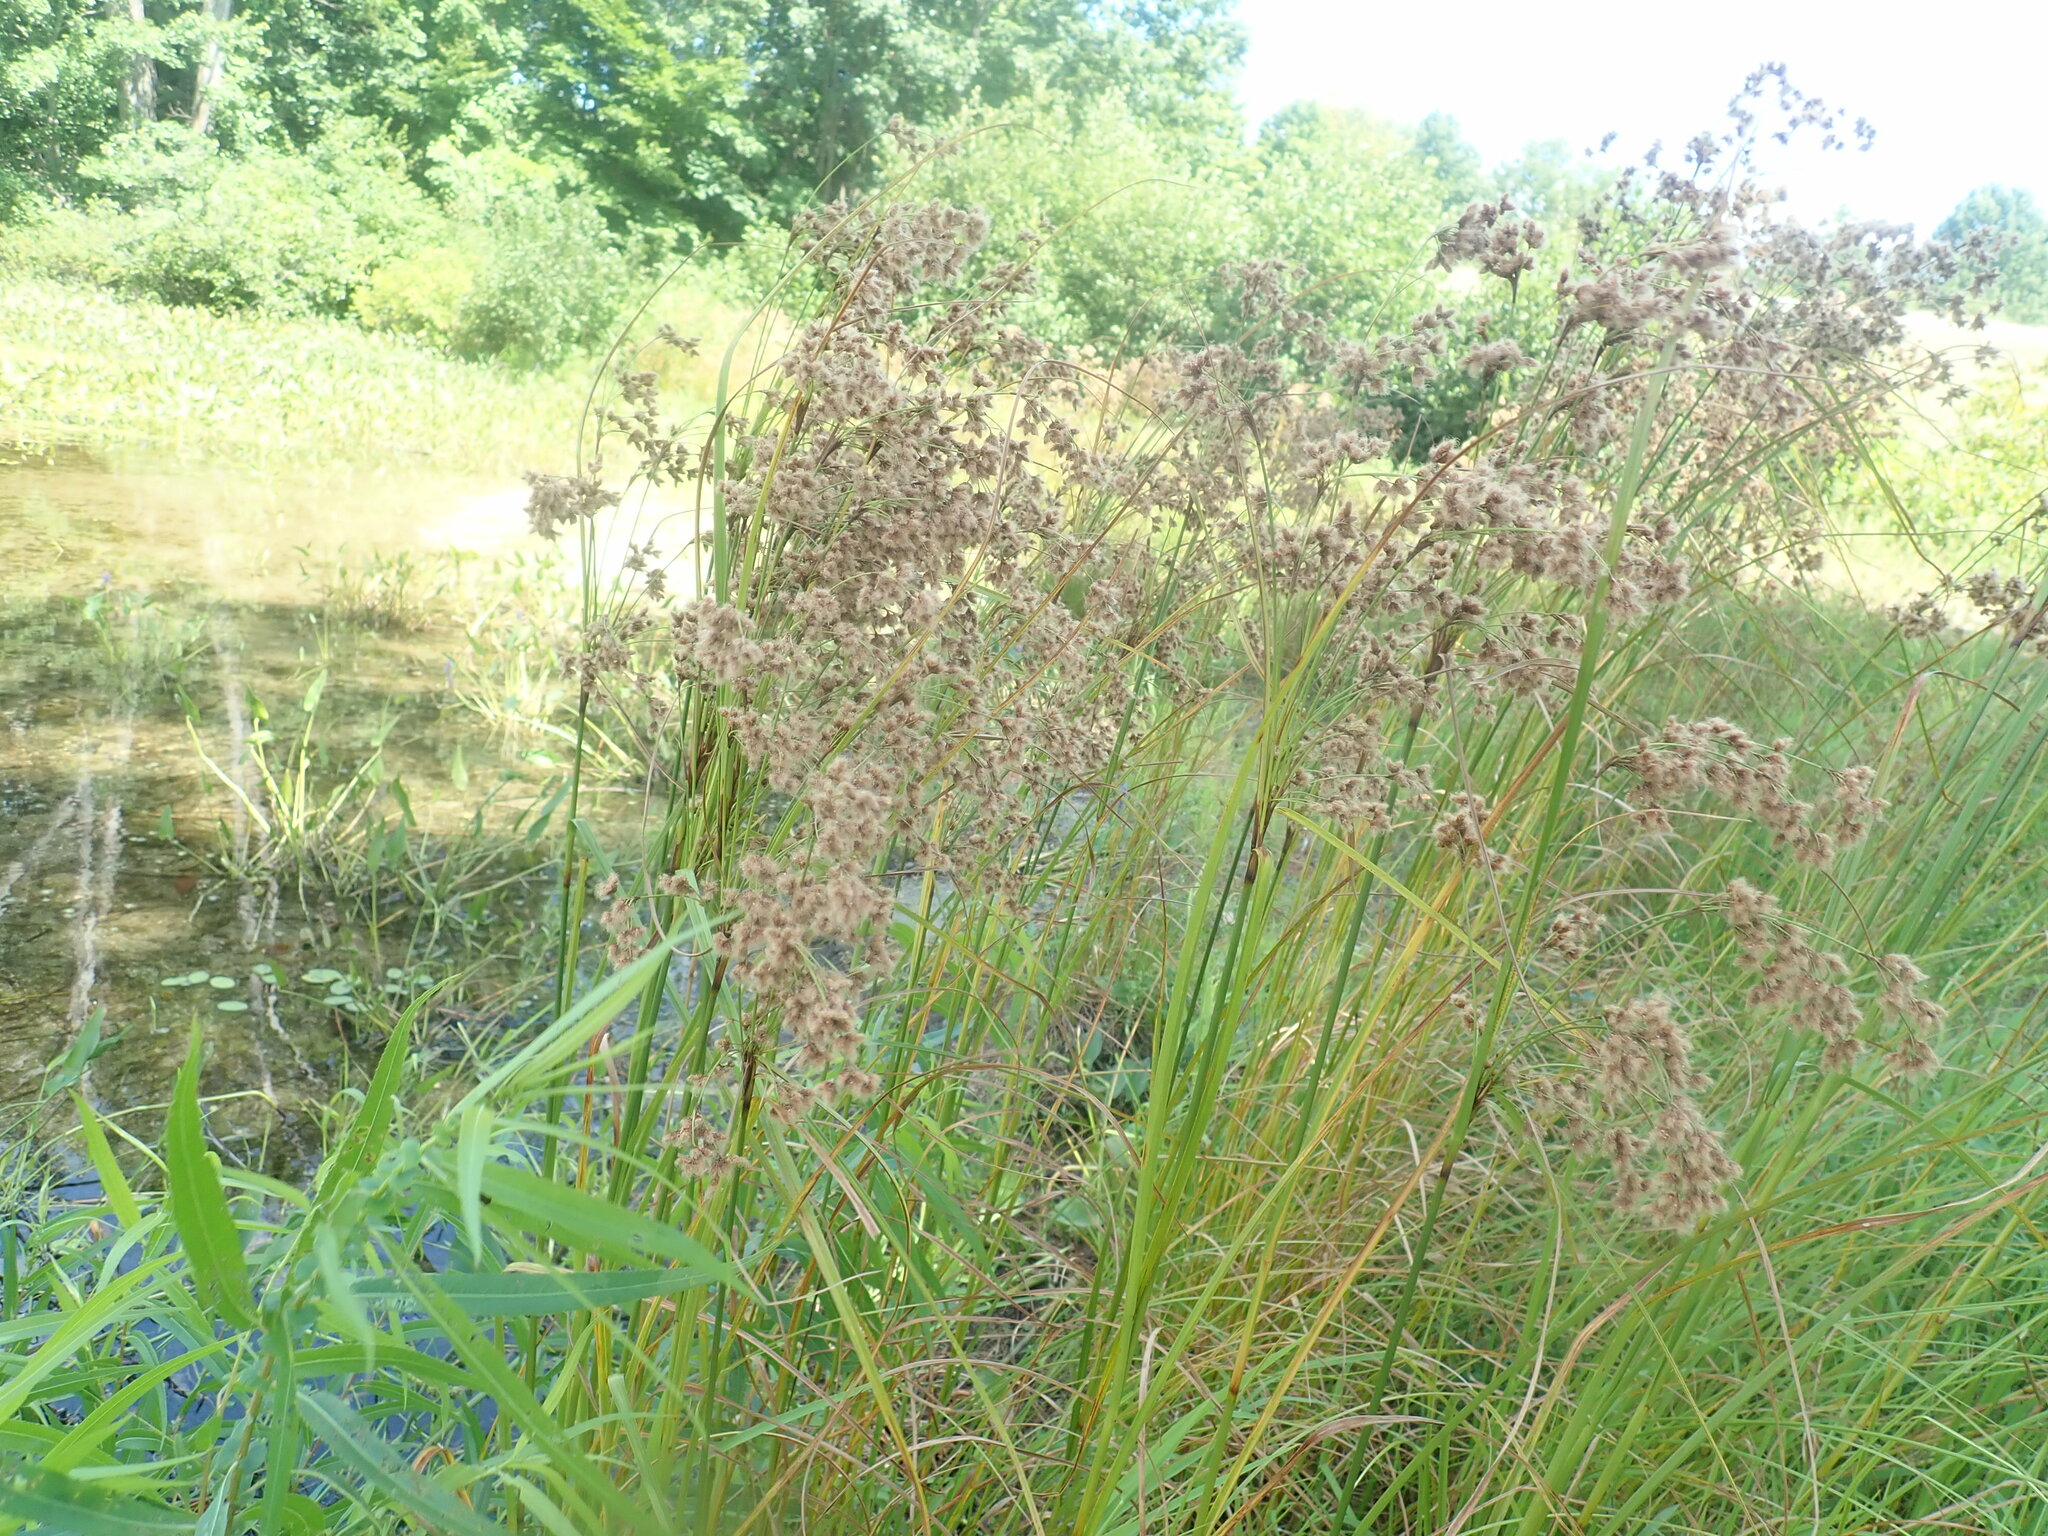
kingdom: Plantae
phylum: Tracheophyta
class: Liliopsida
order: Poales
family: Cyperaceae
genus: Scirpus
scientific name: Scirpus cyperinus
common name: Black-sheathed bulrush
